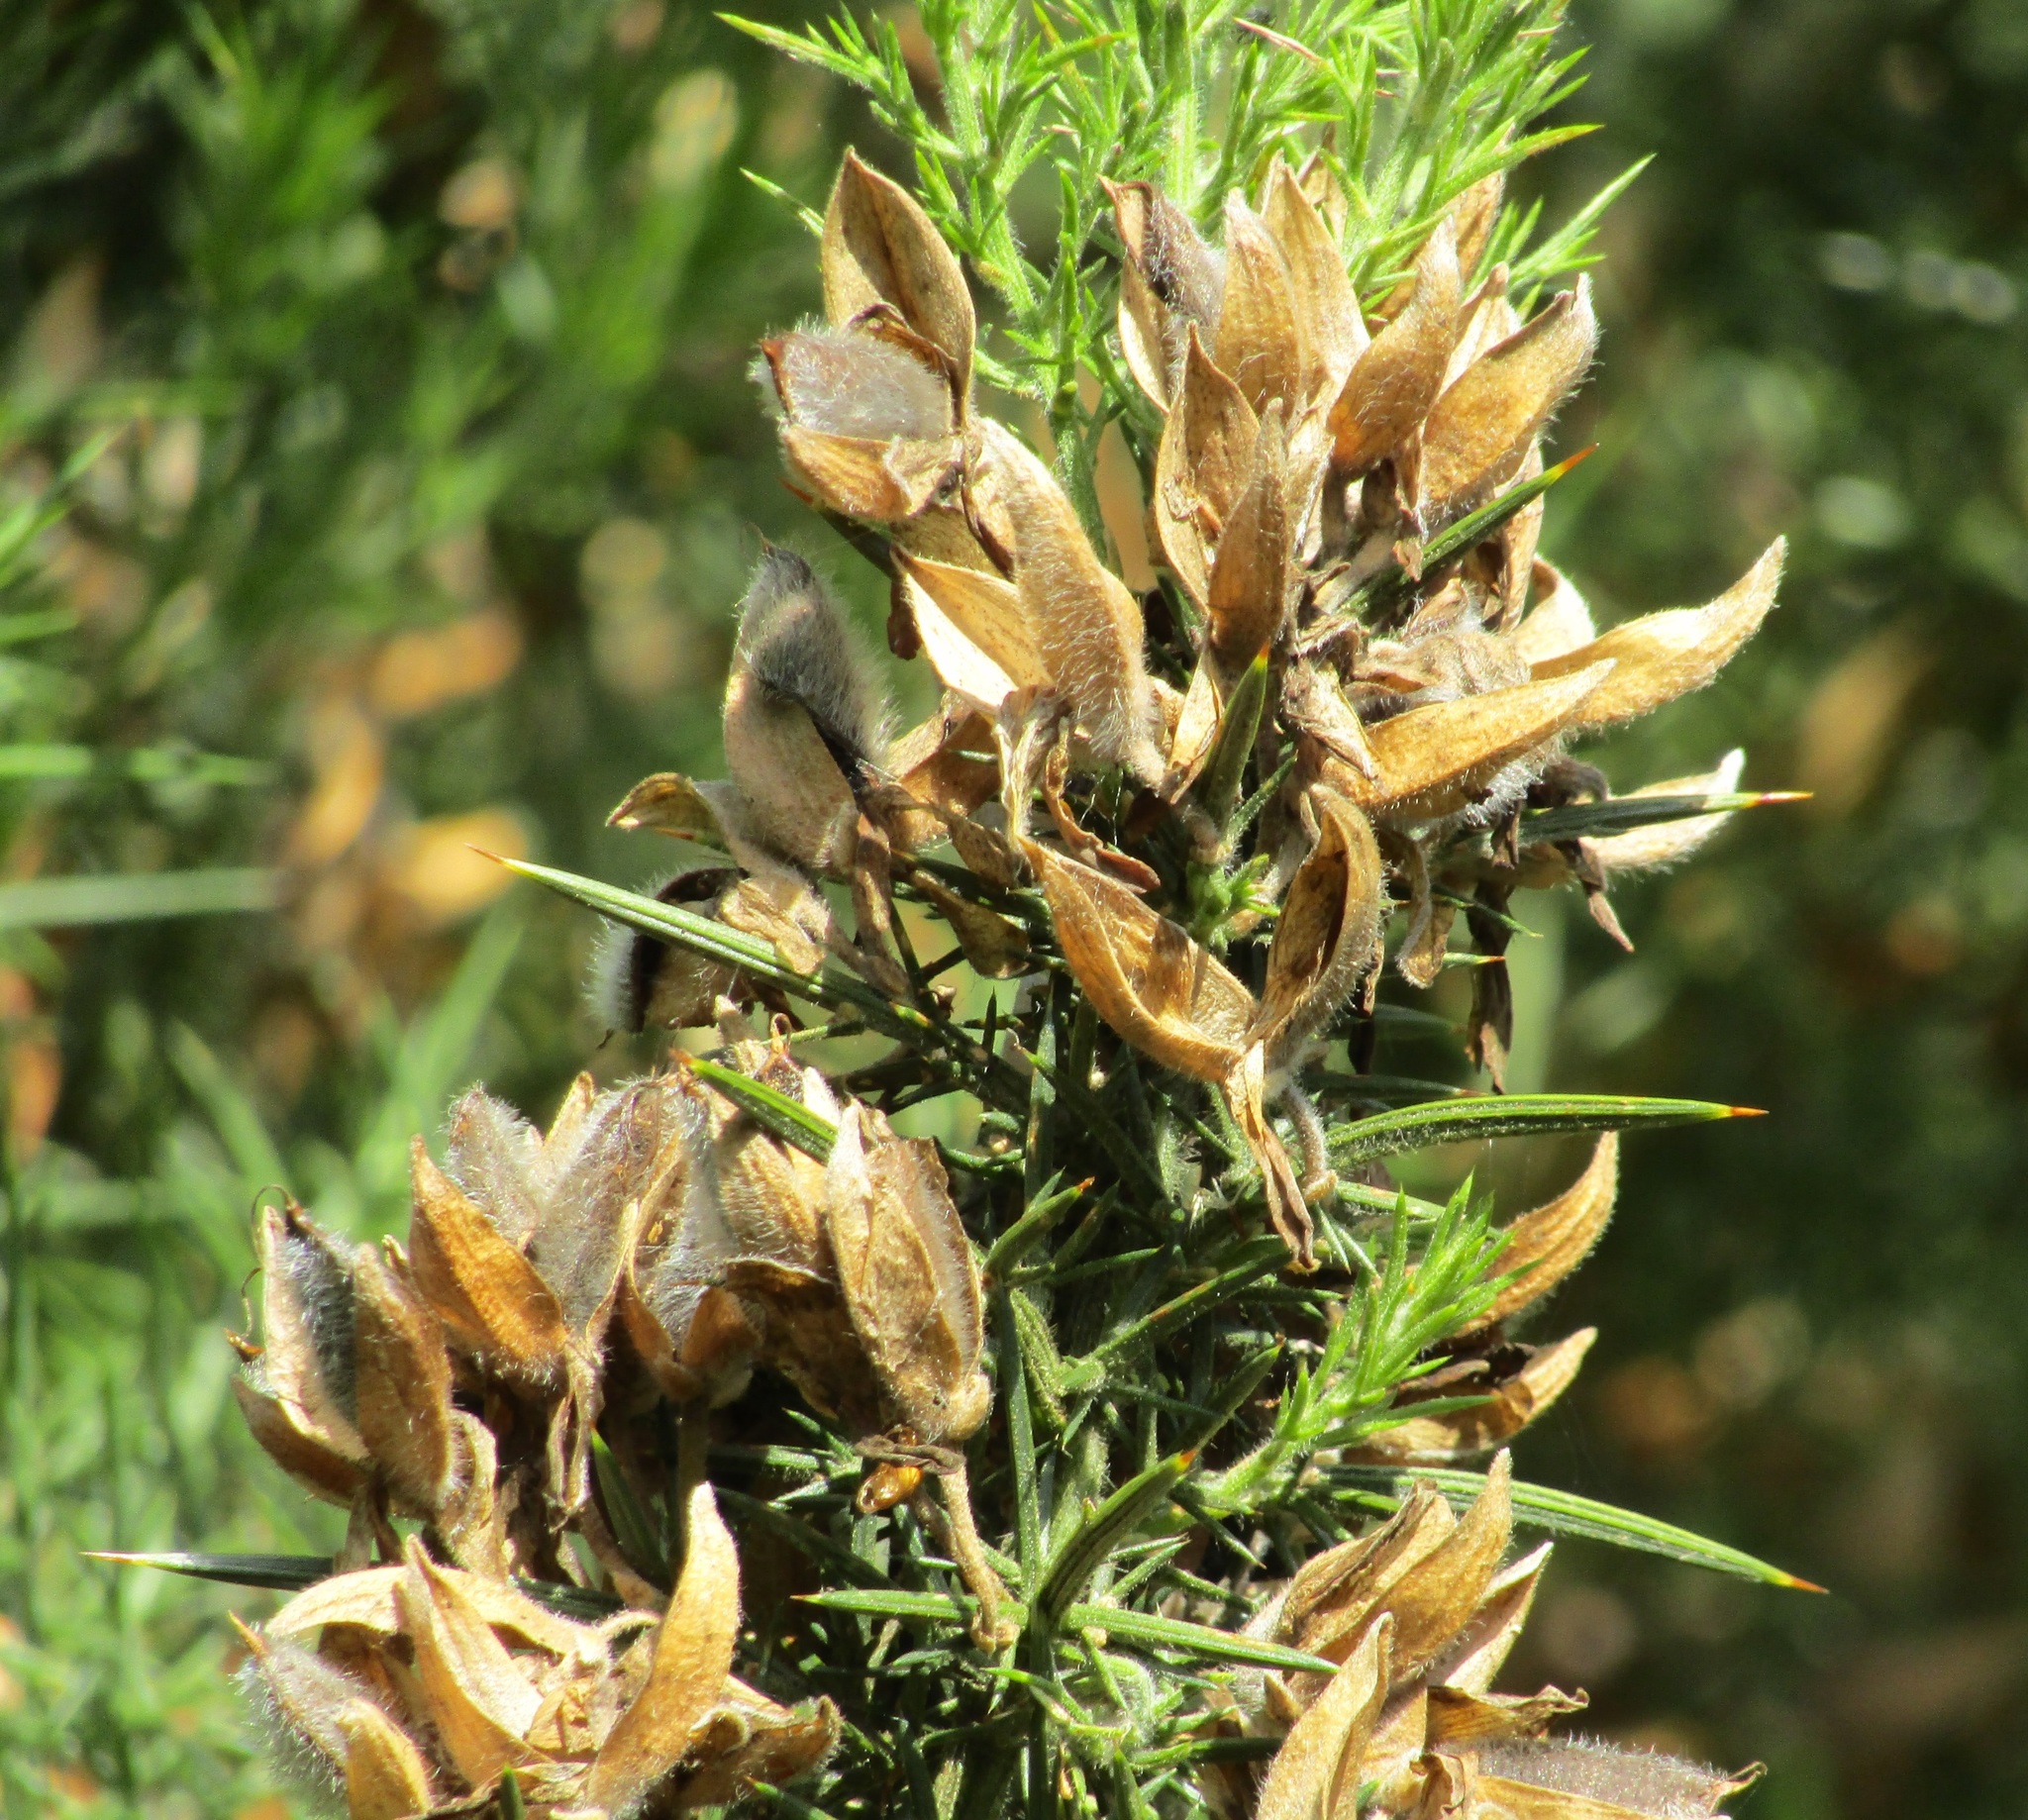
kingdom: Plantae
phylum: Tracheophyta
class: Magnoliopsida
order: Fabales
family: Fabaceae
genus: Ulex
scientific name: Ulex europaeus
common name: Common gorse
